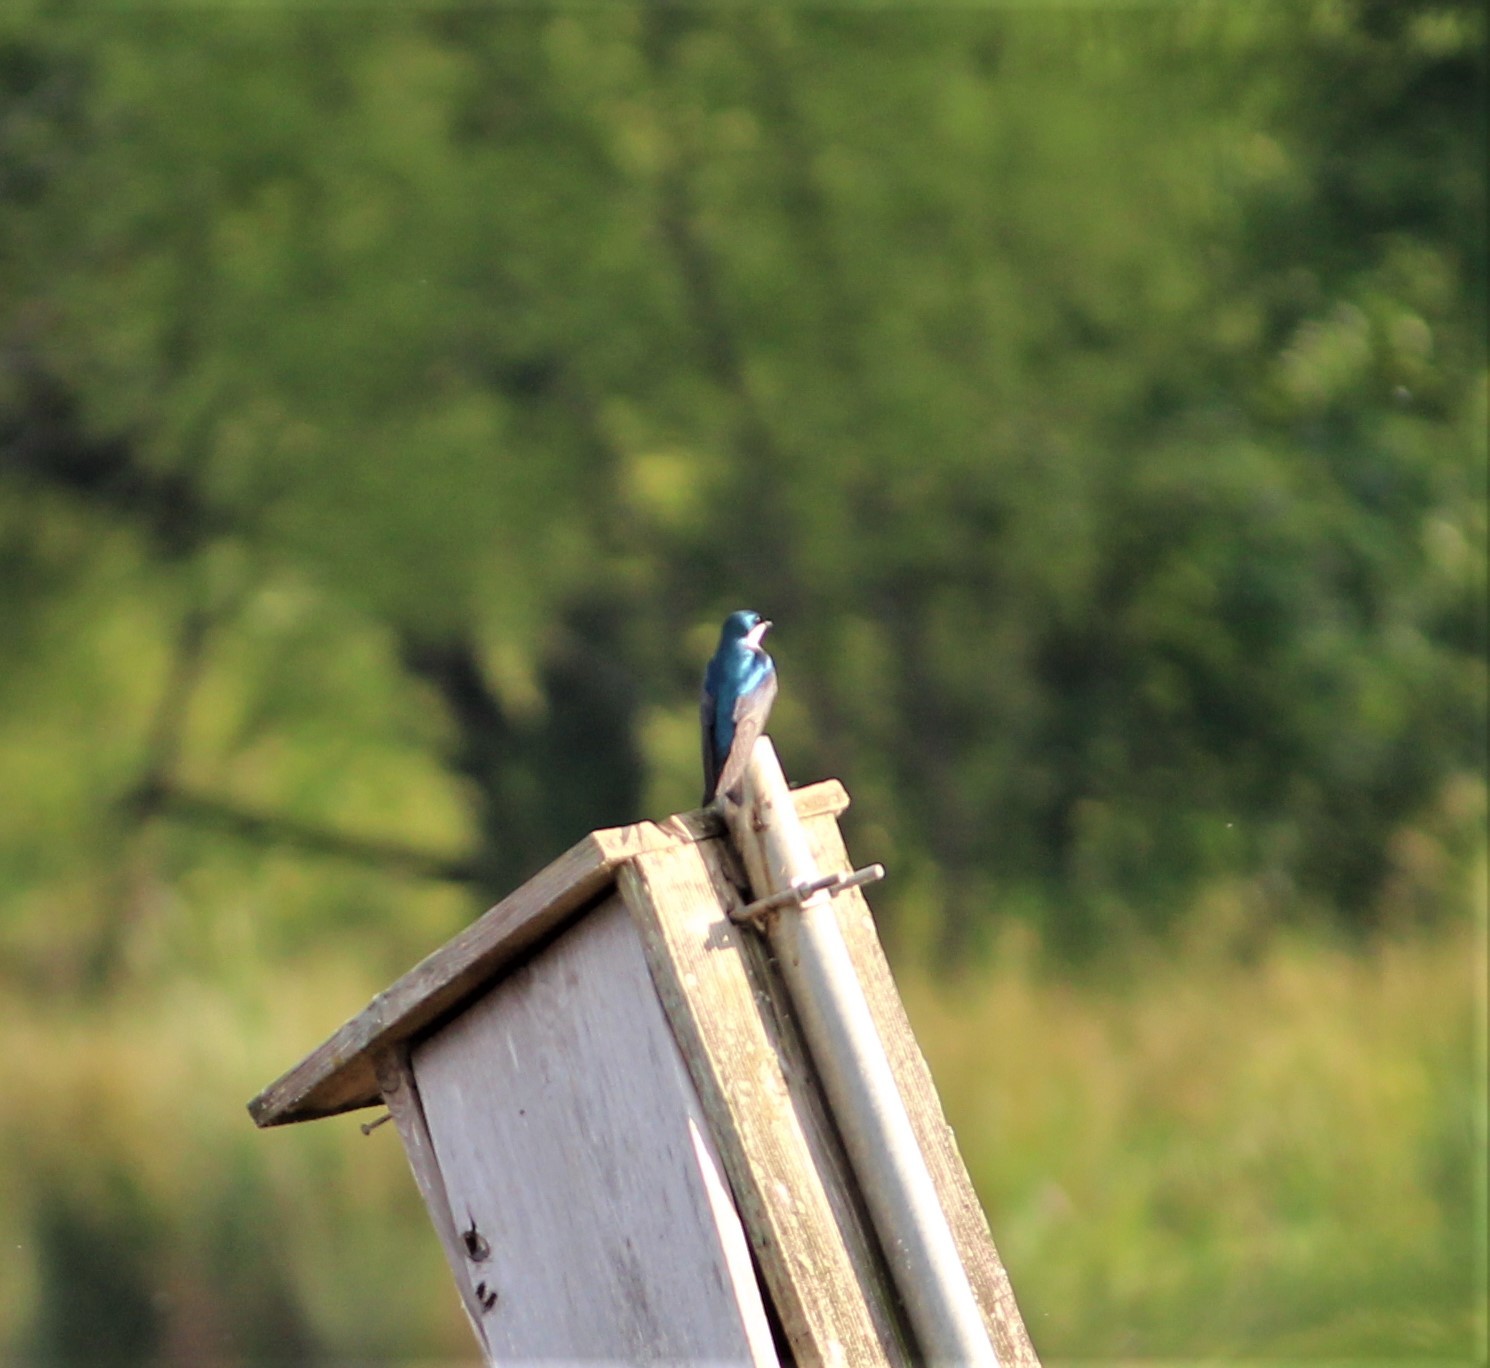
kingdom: Animalia
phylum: Chordata
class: Aves
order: Passeriformes
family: Hirundinidae
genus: Tachycineta
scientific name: Tachycineta bicolor
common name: Tree swallow
